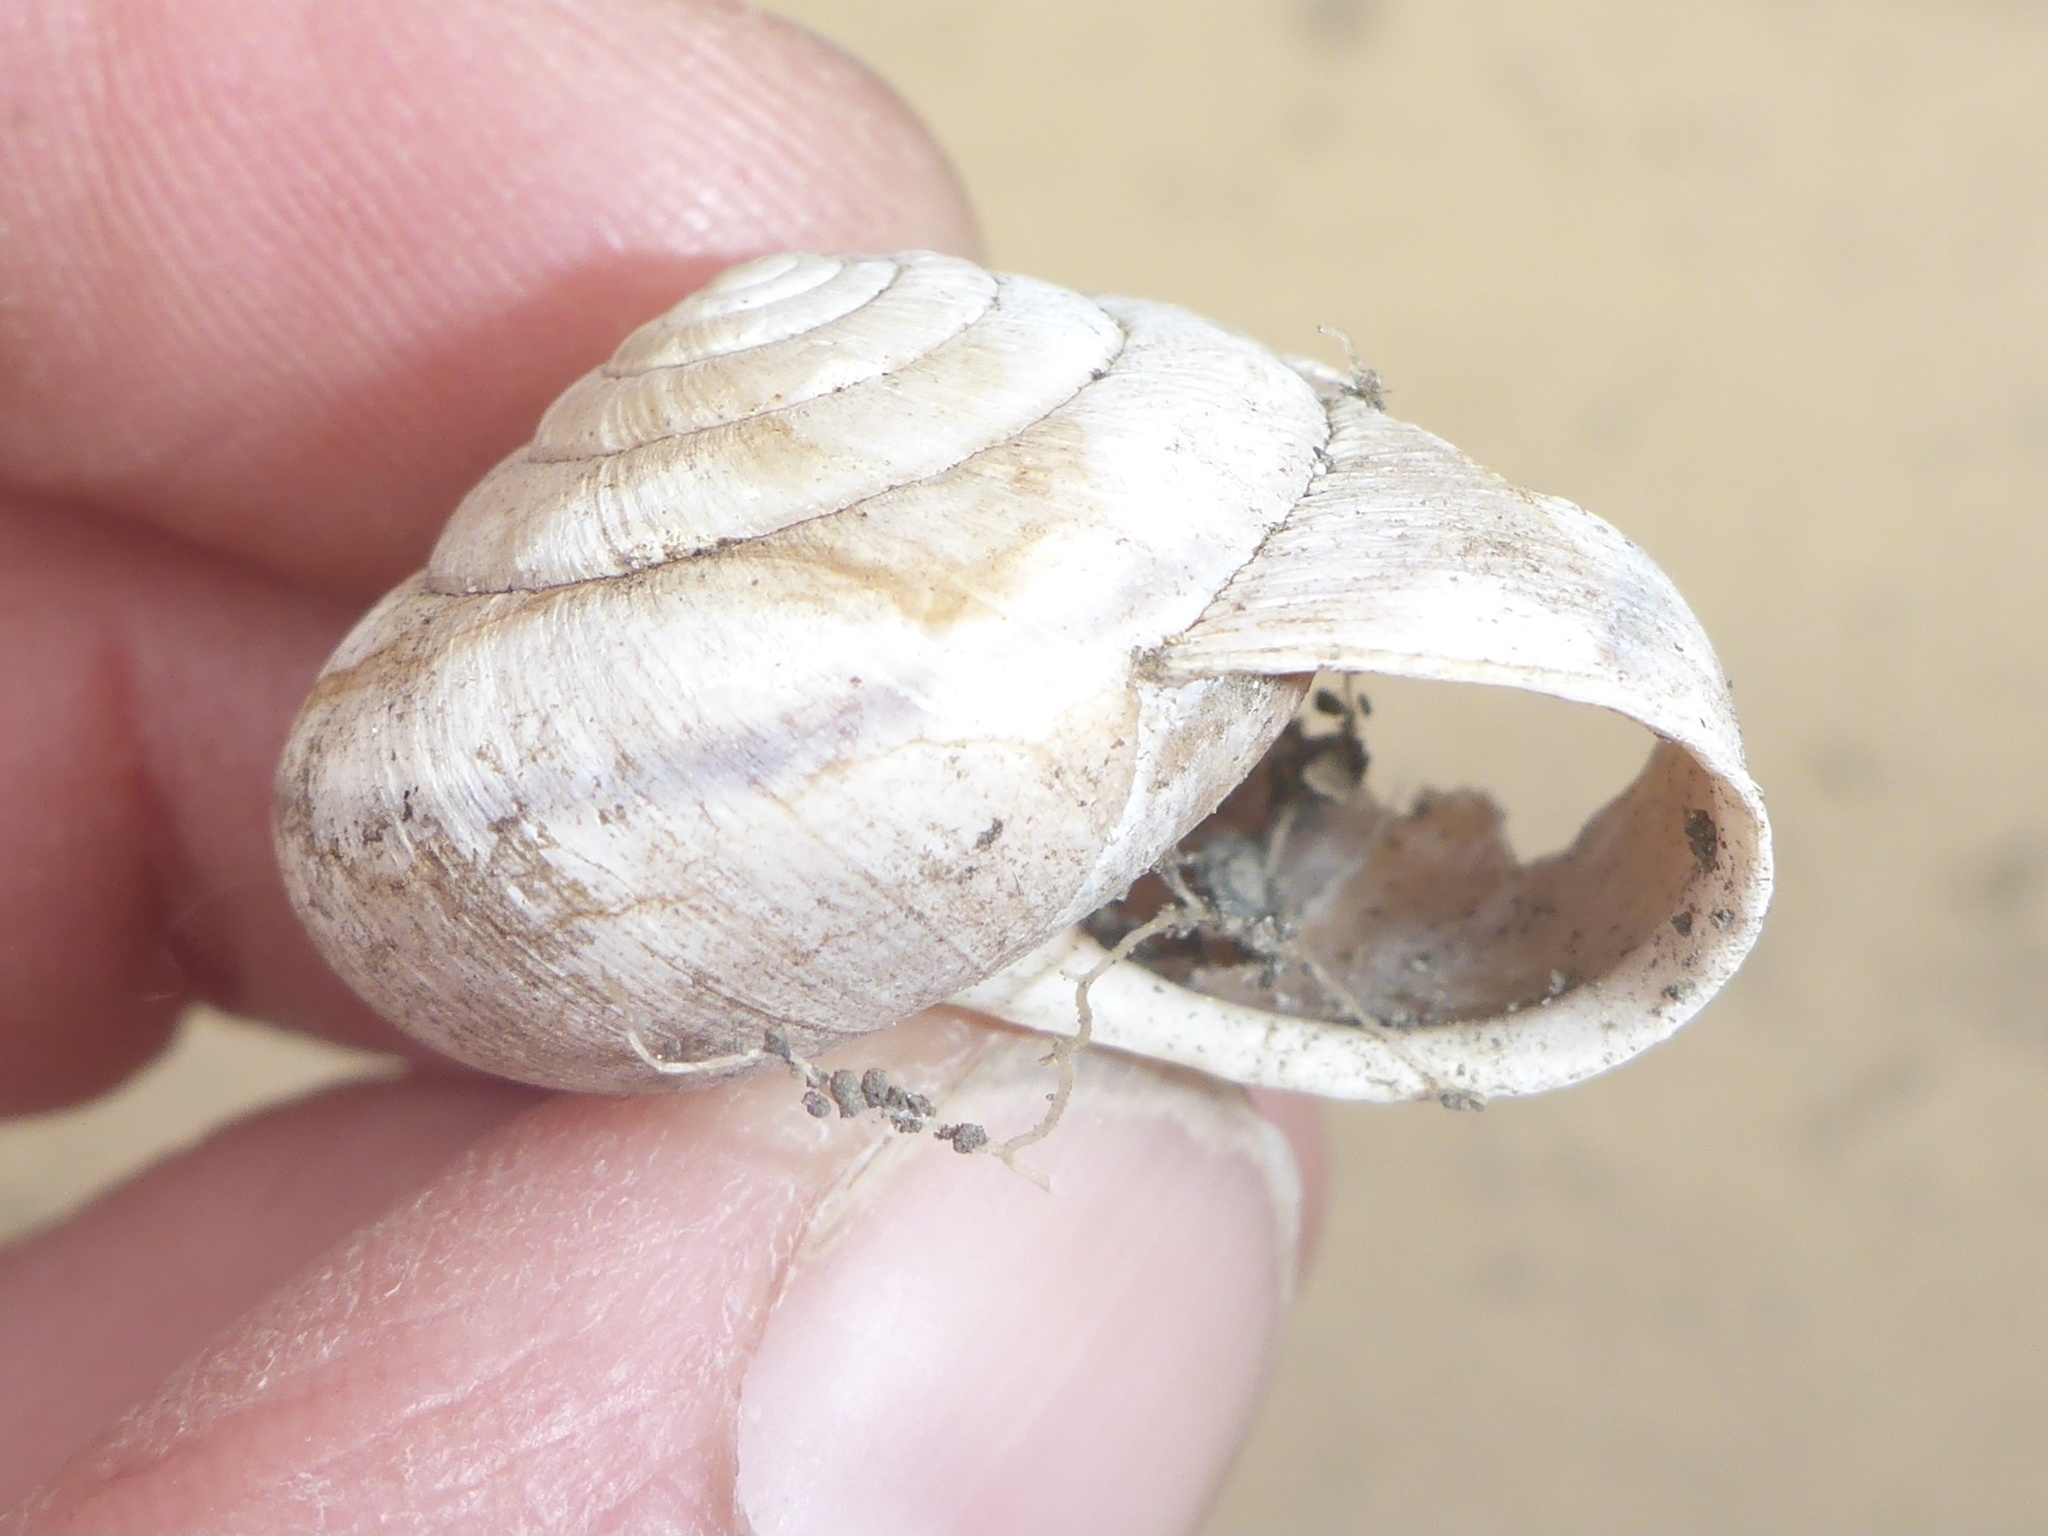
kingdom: Animalia
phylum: Mollusca
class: Gastropoda
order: Stylommatophora
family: Xanthonychidae
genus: Helminthoglypta
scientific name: Helminthoglypta arrosa
